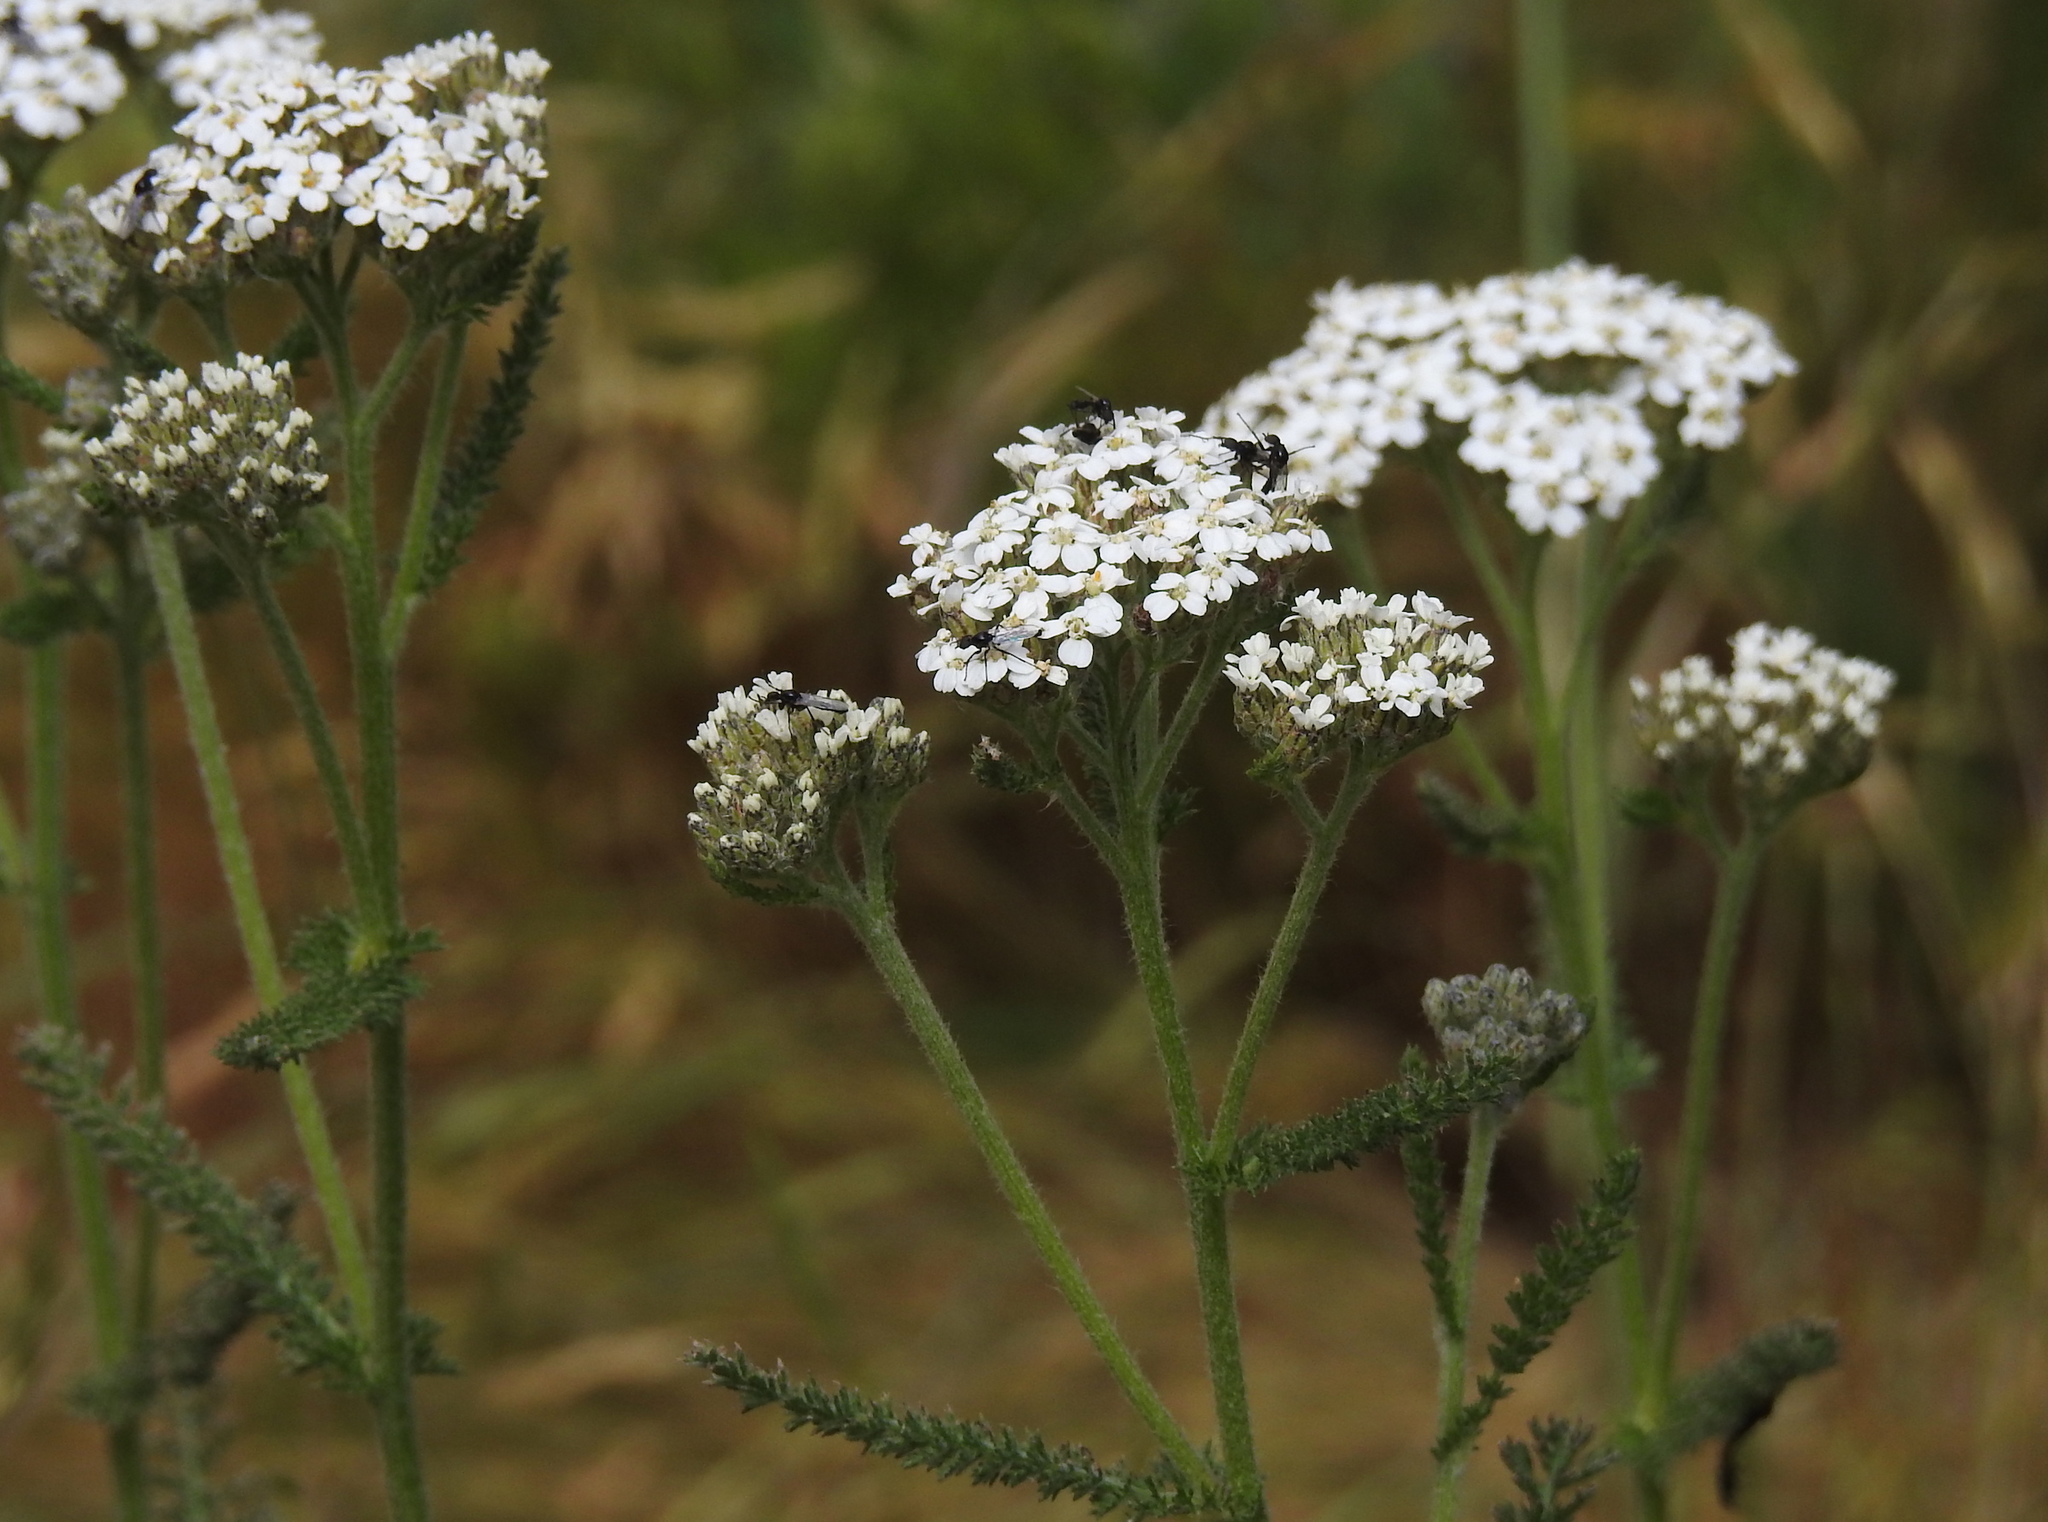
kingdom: Plantae
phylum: Tracheophyta
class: Magnoliopsida
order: Asterales
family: Asteraceae
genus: Achillea
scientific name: Achillea millefolium
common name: Yarrow
